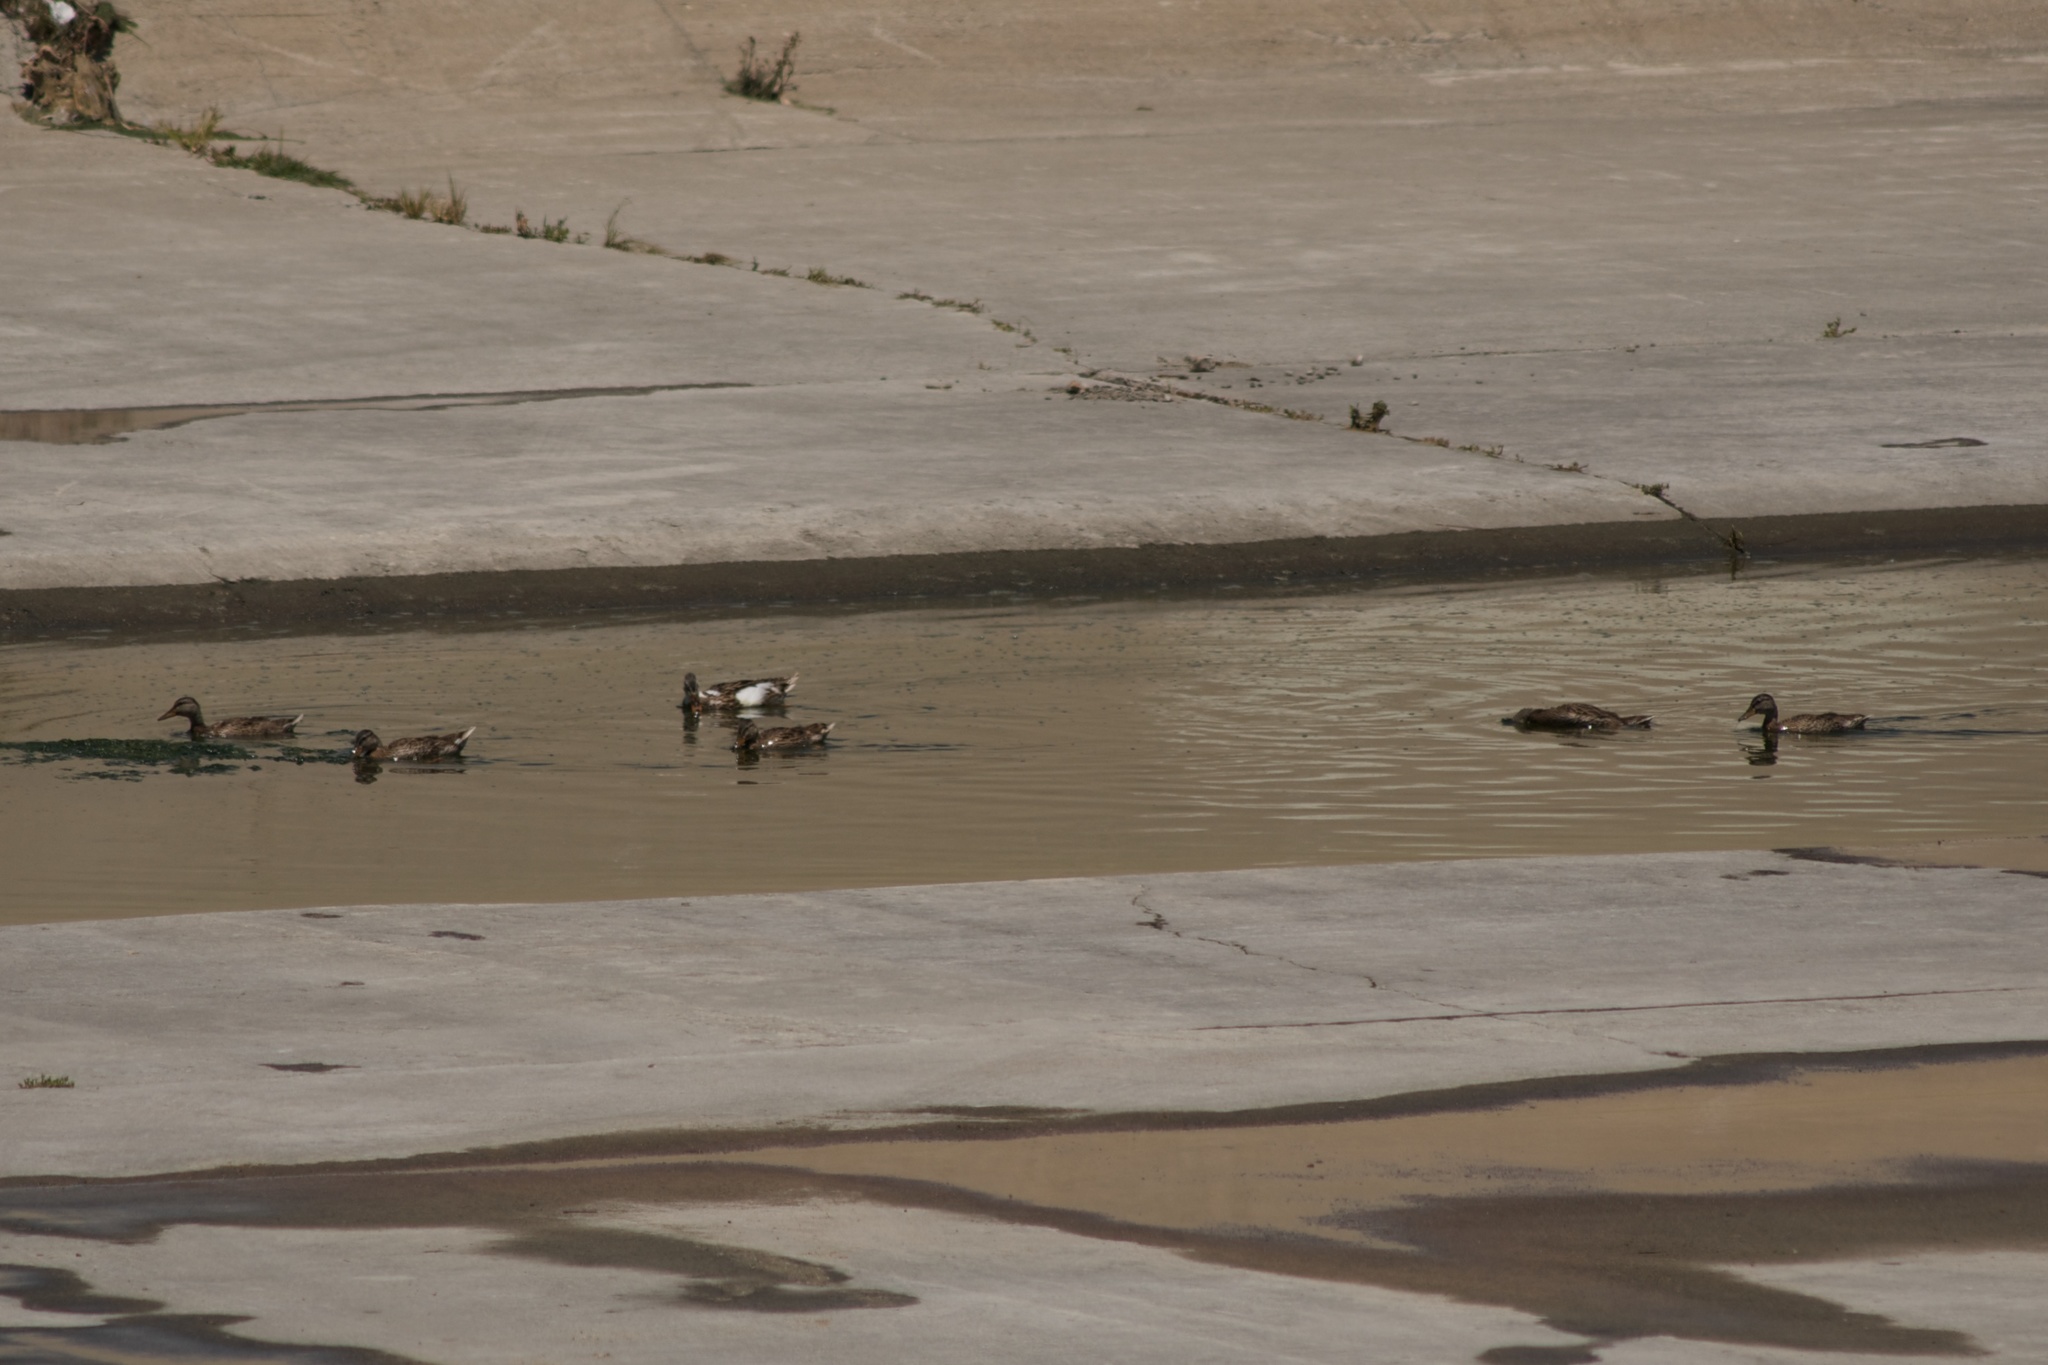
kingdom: Animalia
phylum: Chordata
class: Aves
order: Anseriformes
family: Anatidae
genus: Anas
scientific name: Anas platyrhynchos
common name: Mallard
